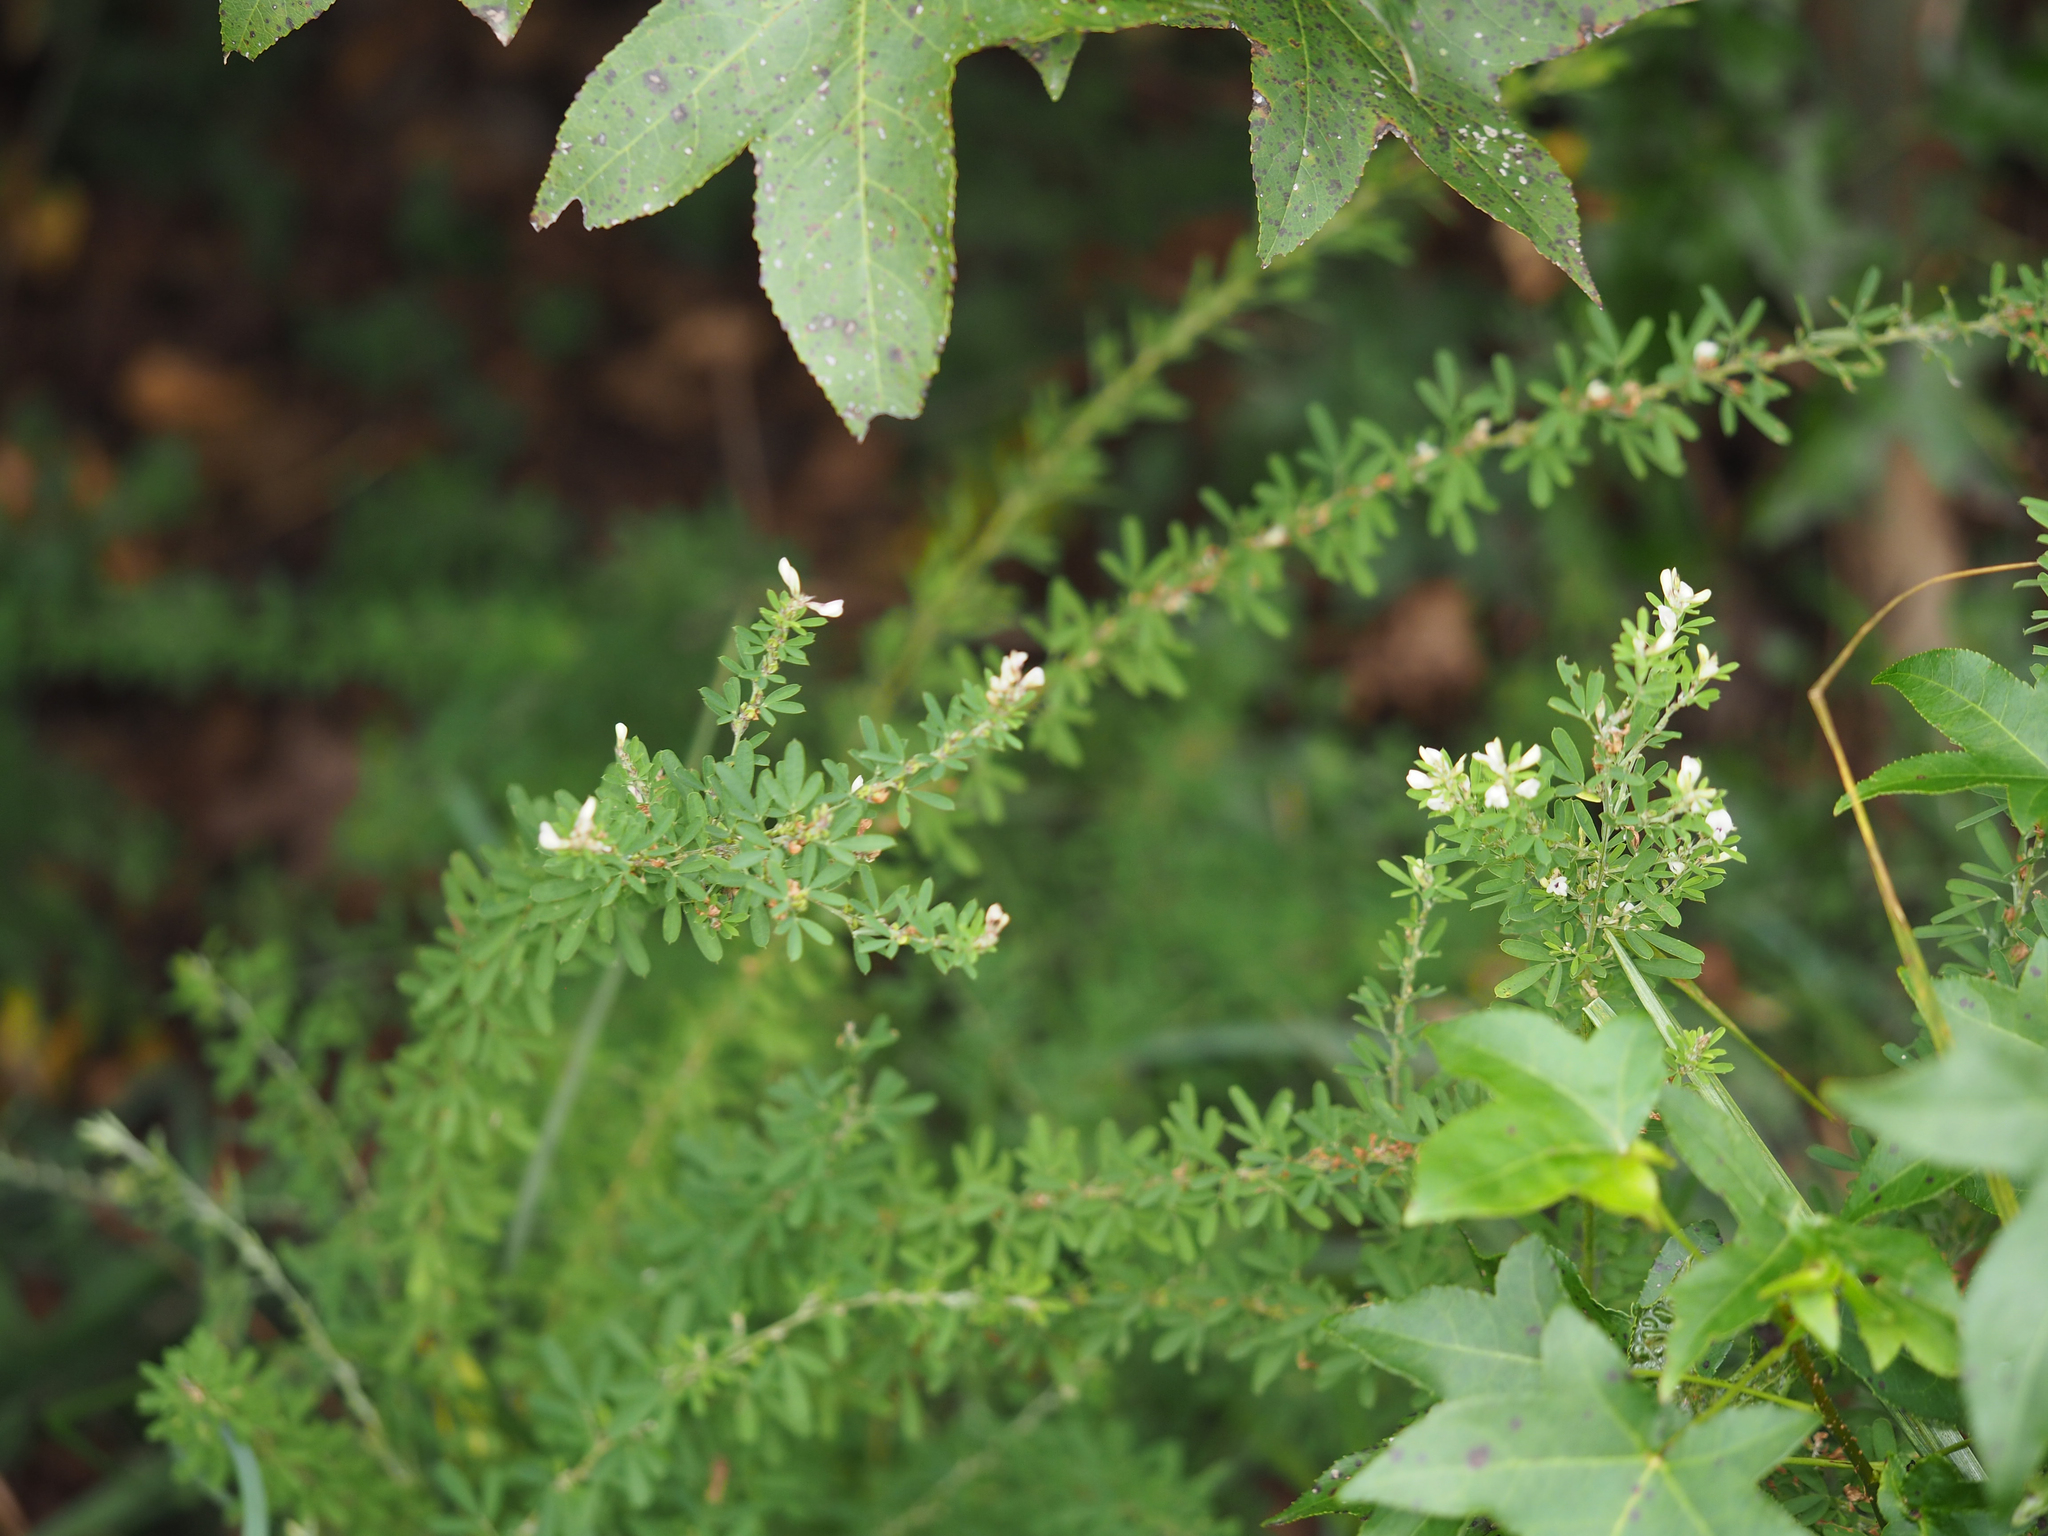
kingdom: Plantae
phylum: Tracheophyta
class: Magnoliopsida
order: Fabales
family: Fabaceae
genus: Lespedeza
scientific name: Lespedeza cuneata
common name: Chinese bush-clover
